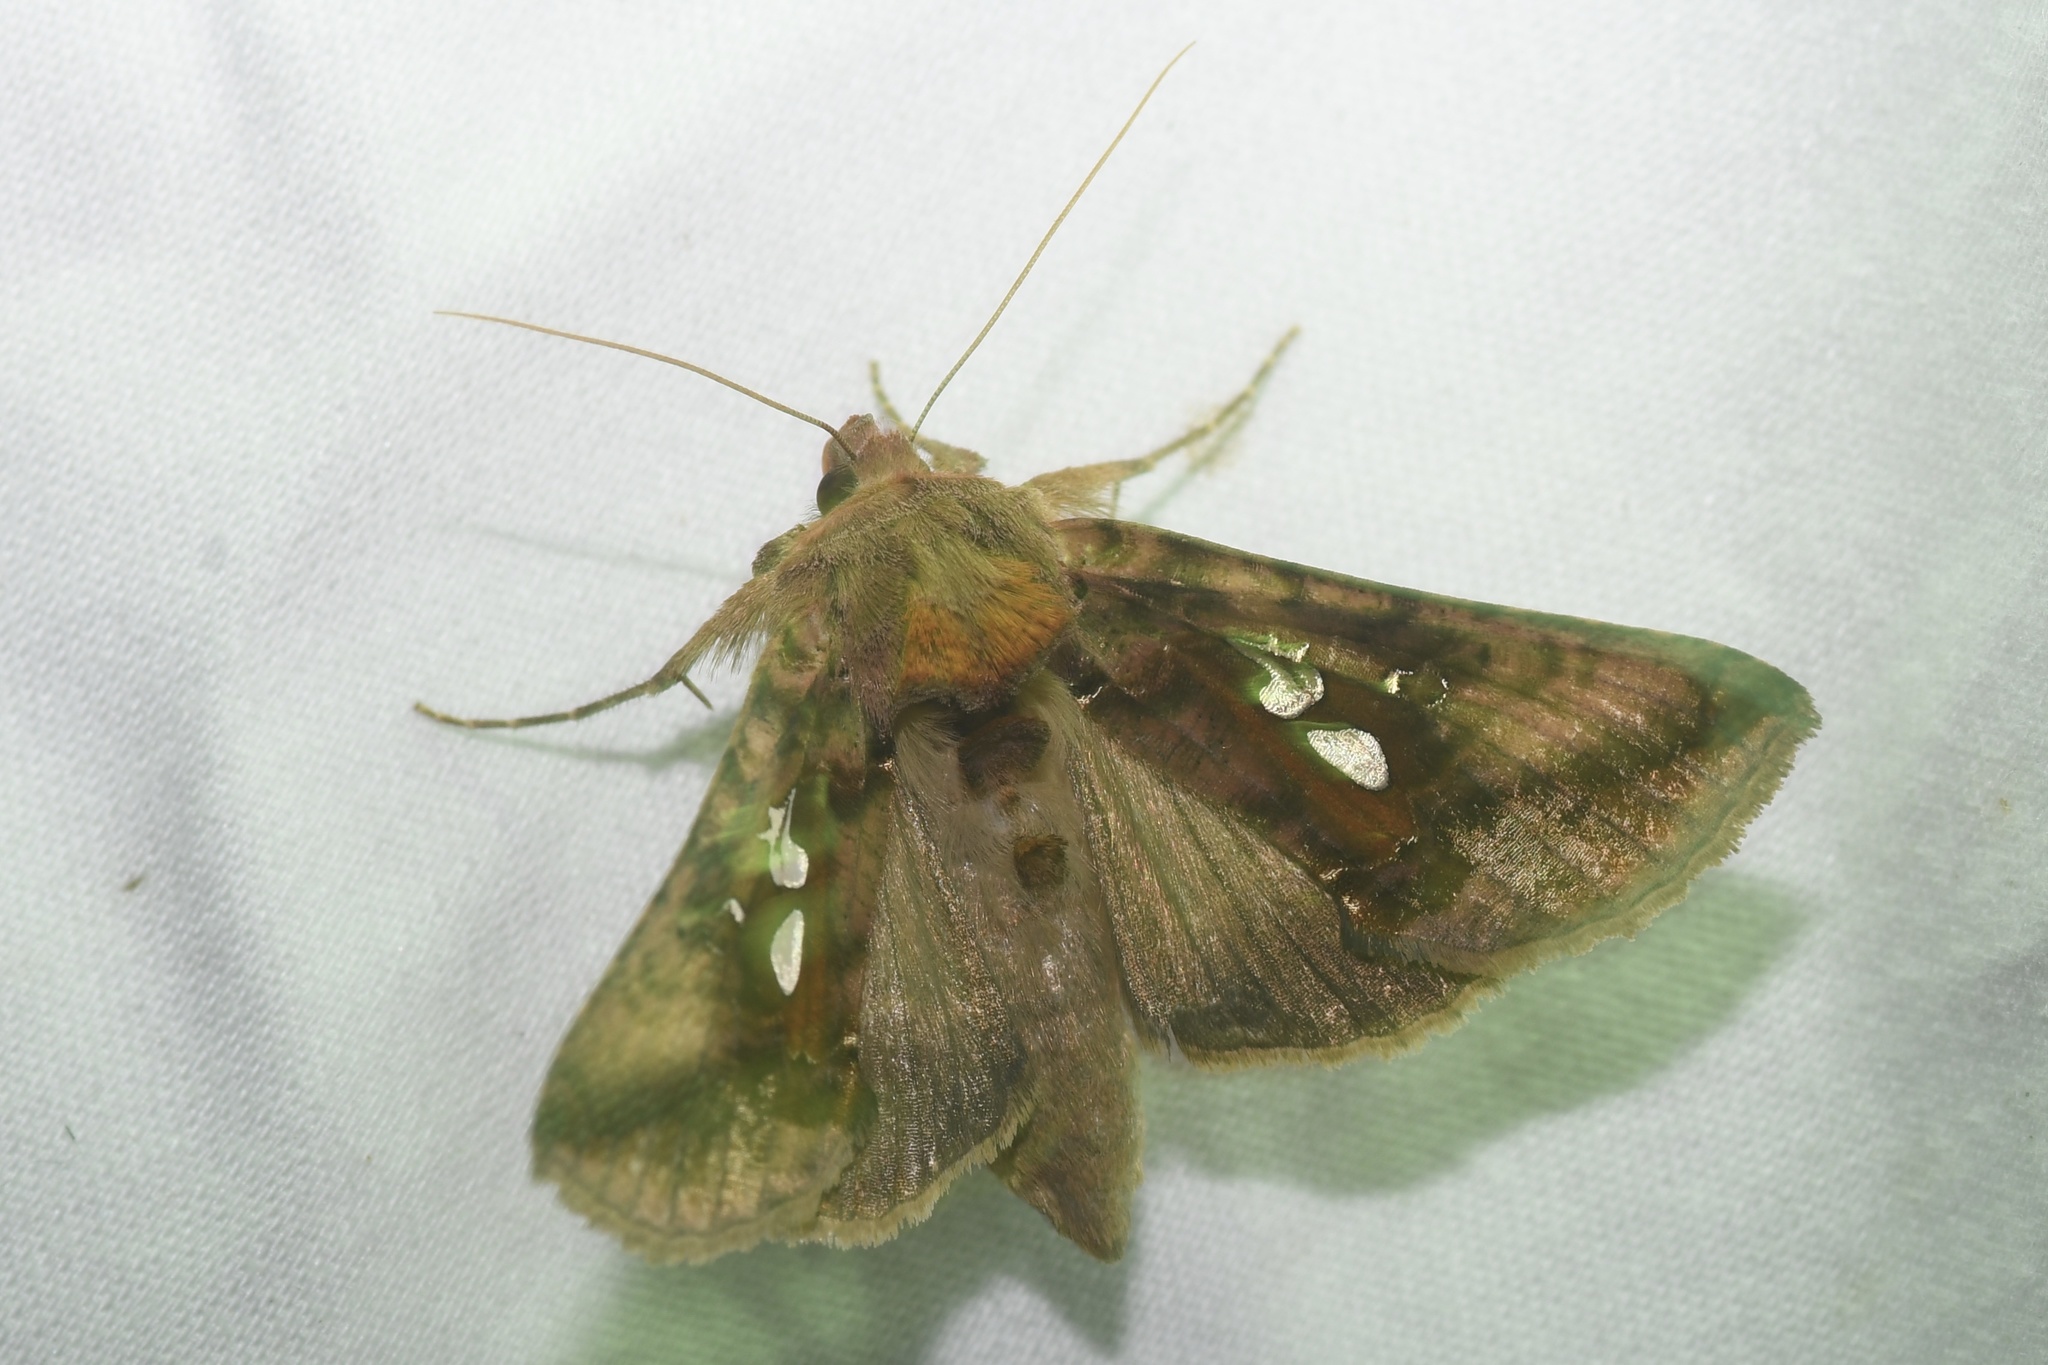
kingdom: Animalia
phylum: Arthropoda
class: Insecta
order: Lepidoptera
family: Noctuidae
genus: Autographa
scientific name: Autographa bimaculata
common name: Double-spotted spangle
